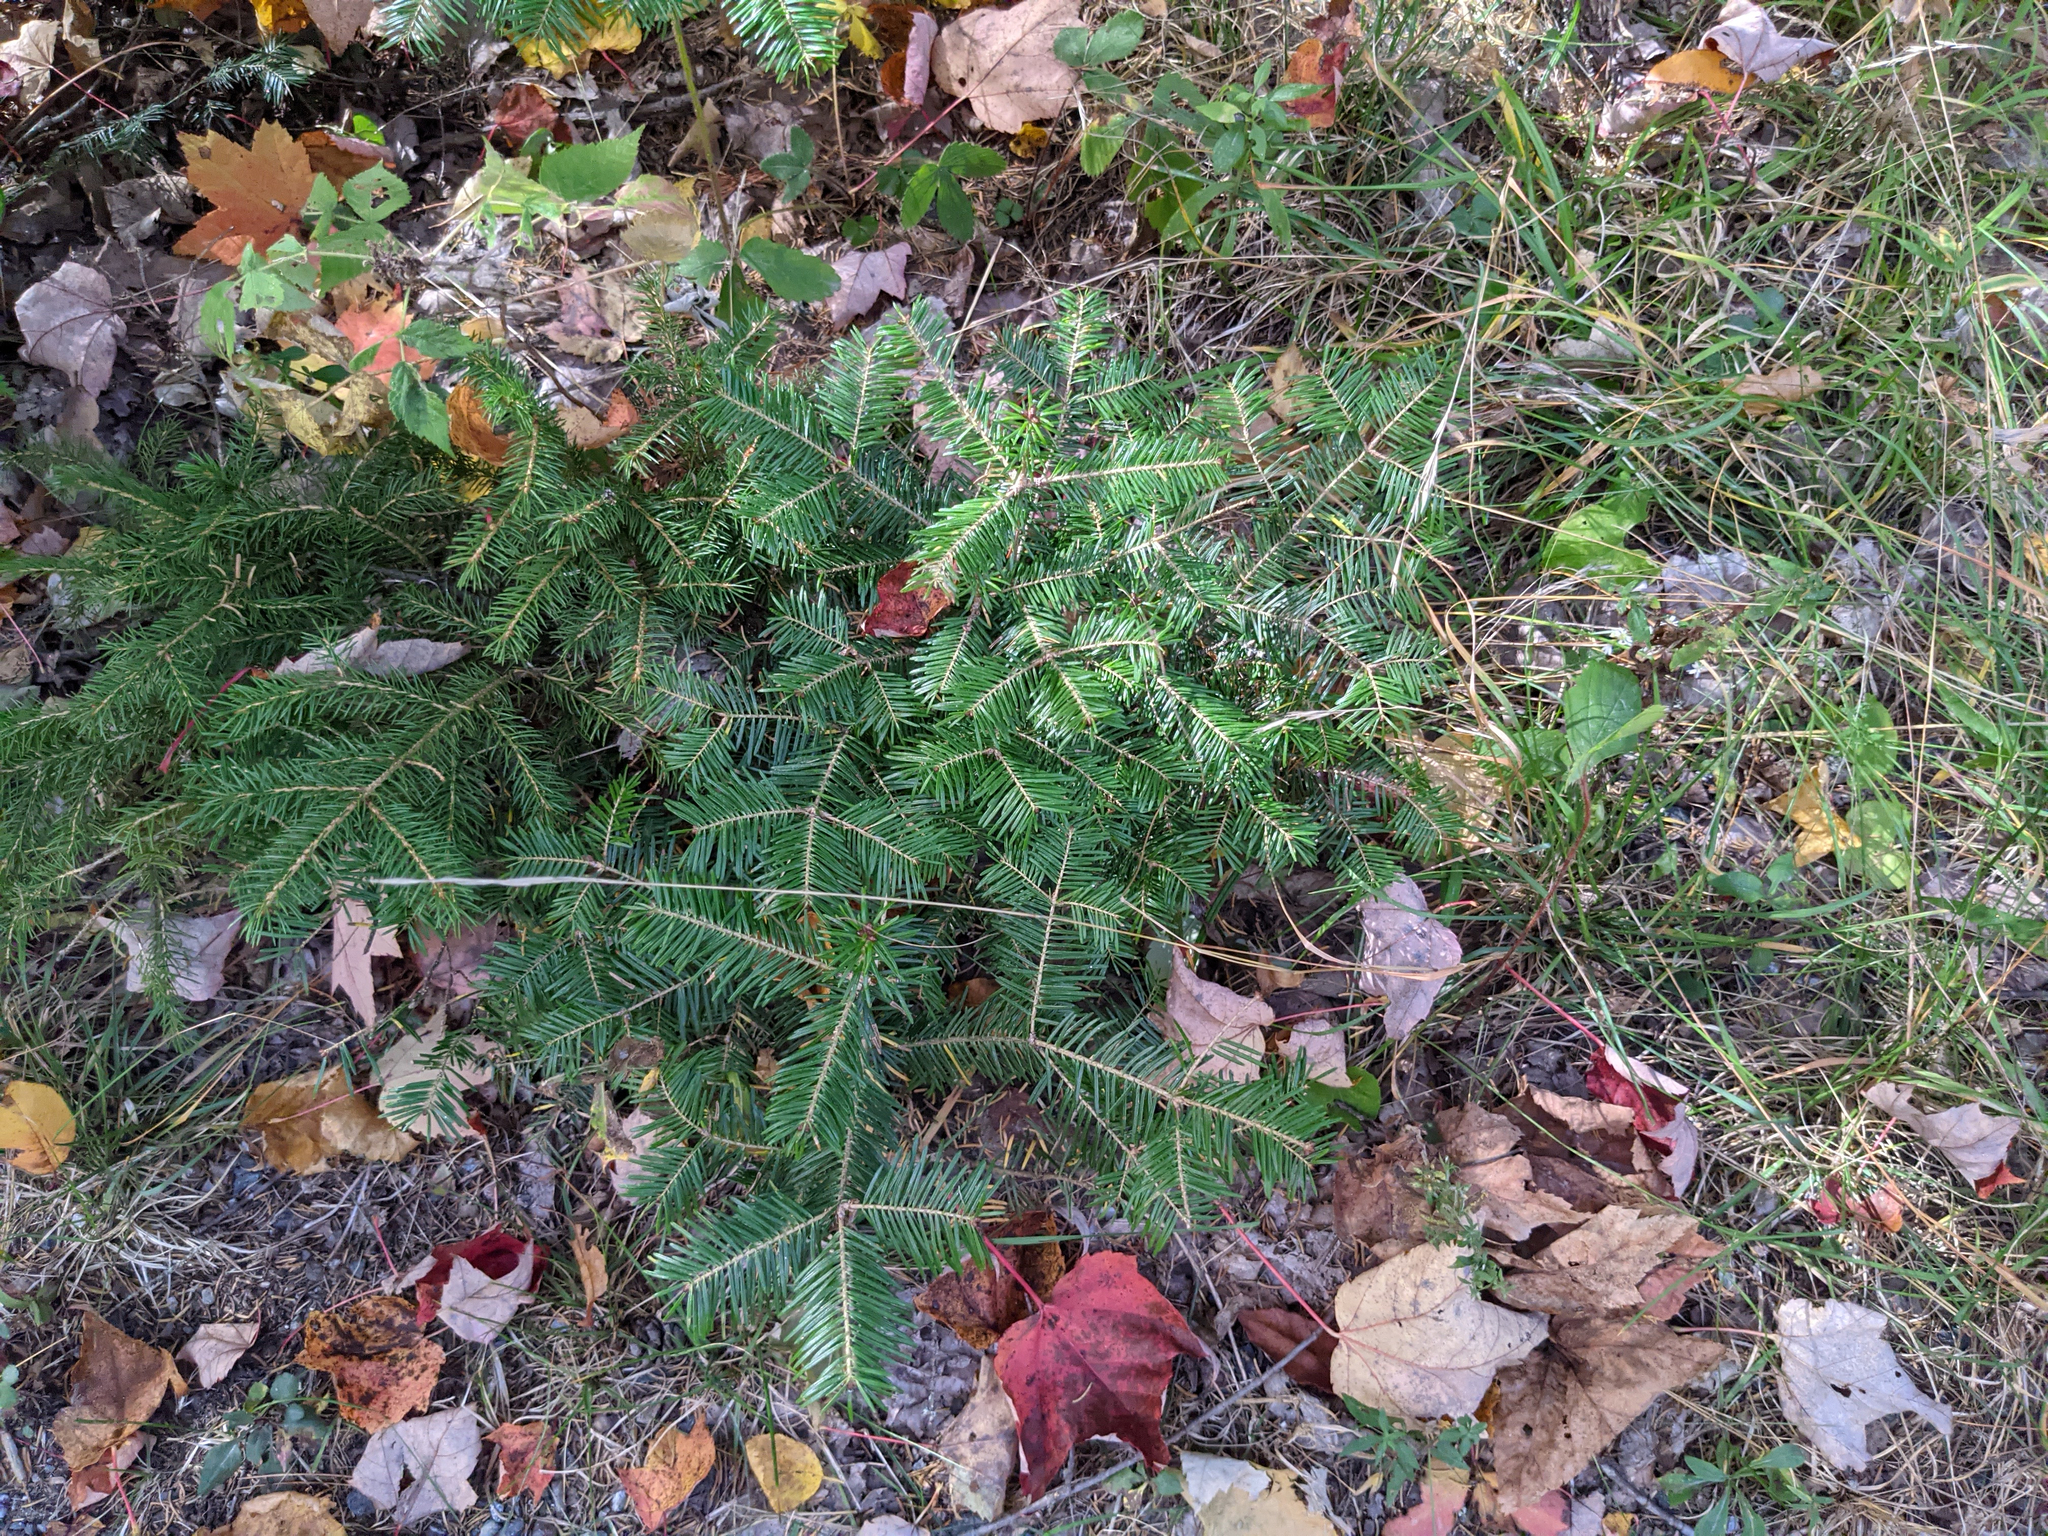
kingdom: Plantae
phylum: Tracheophyta
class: Pinopsida
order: Pinales
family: Pinaceae
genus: Abies
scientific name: Abies balsamea
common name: Balsam fir
